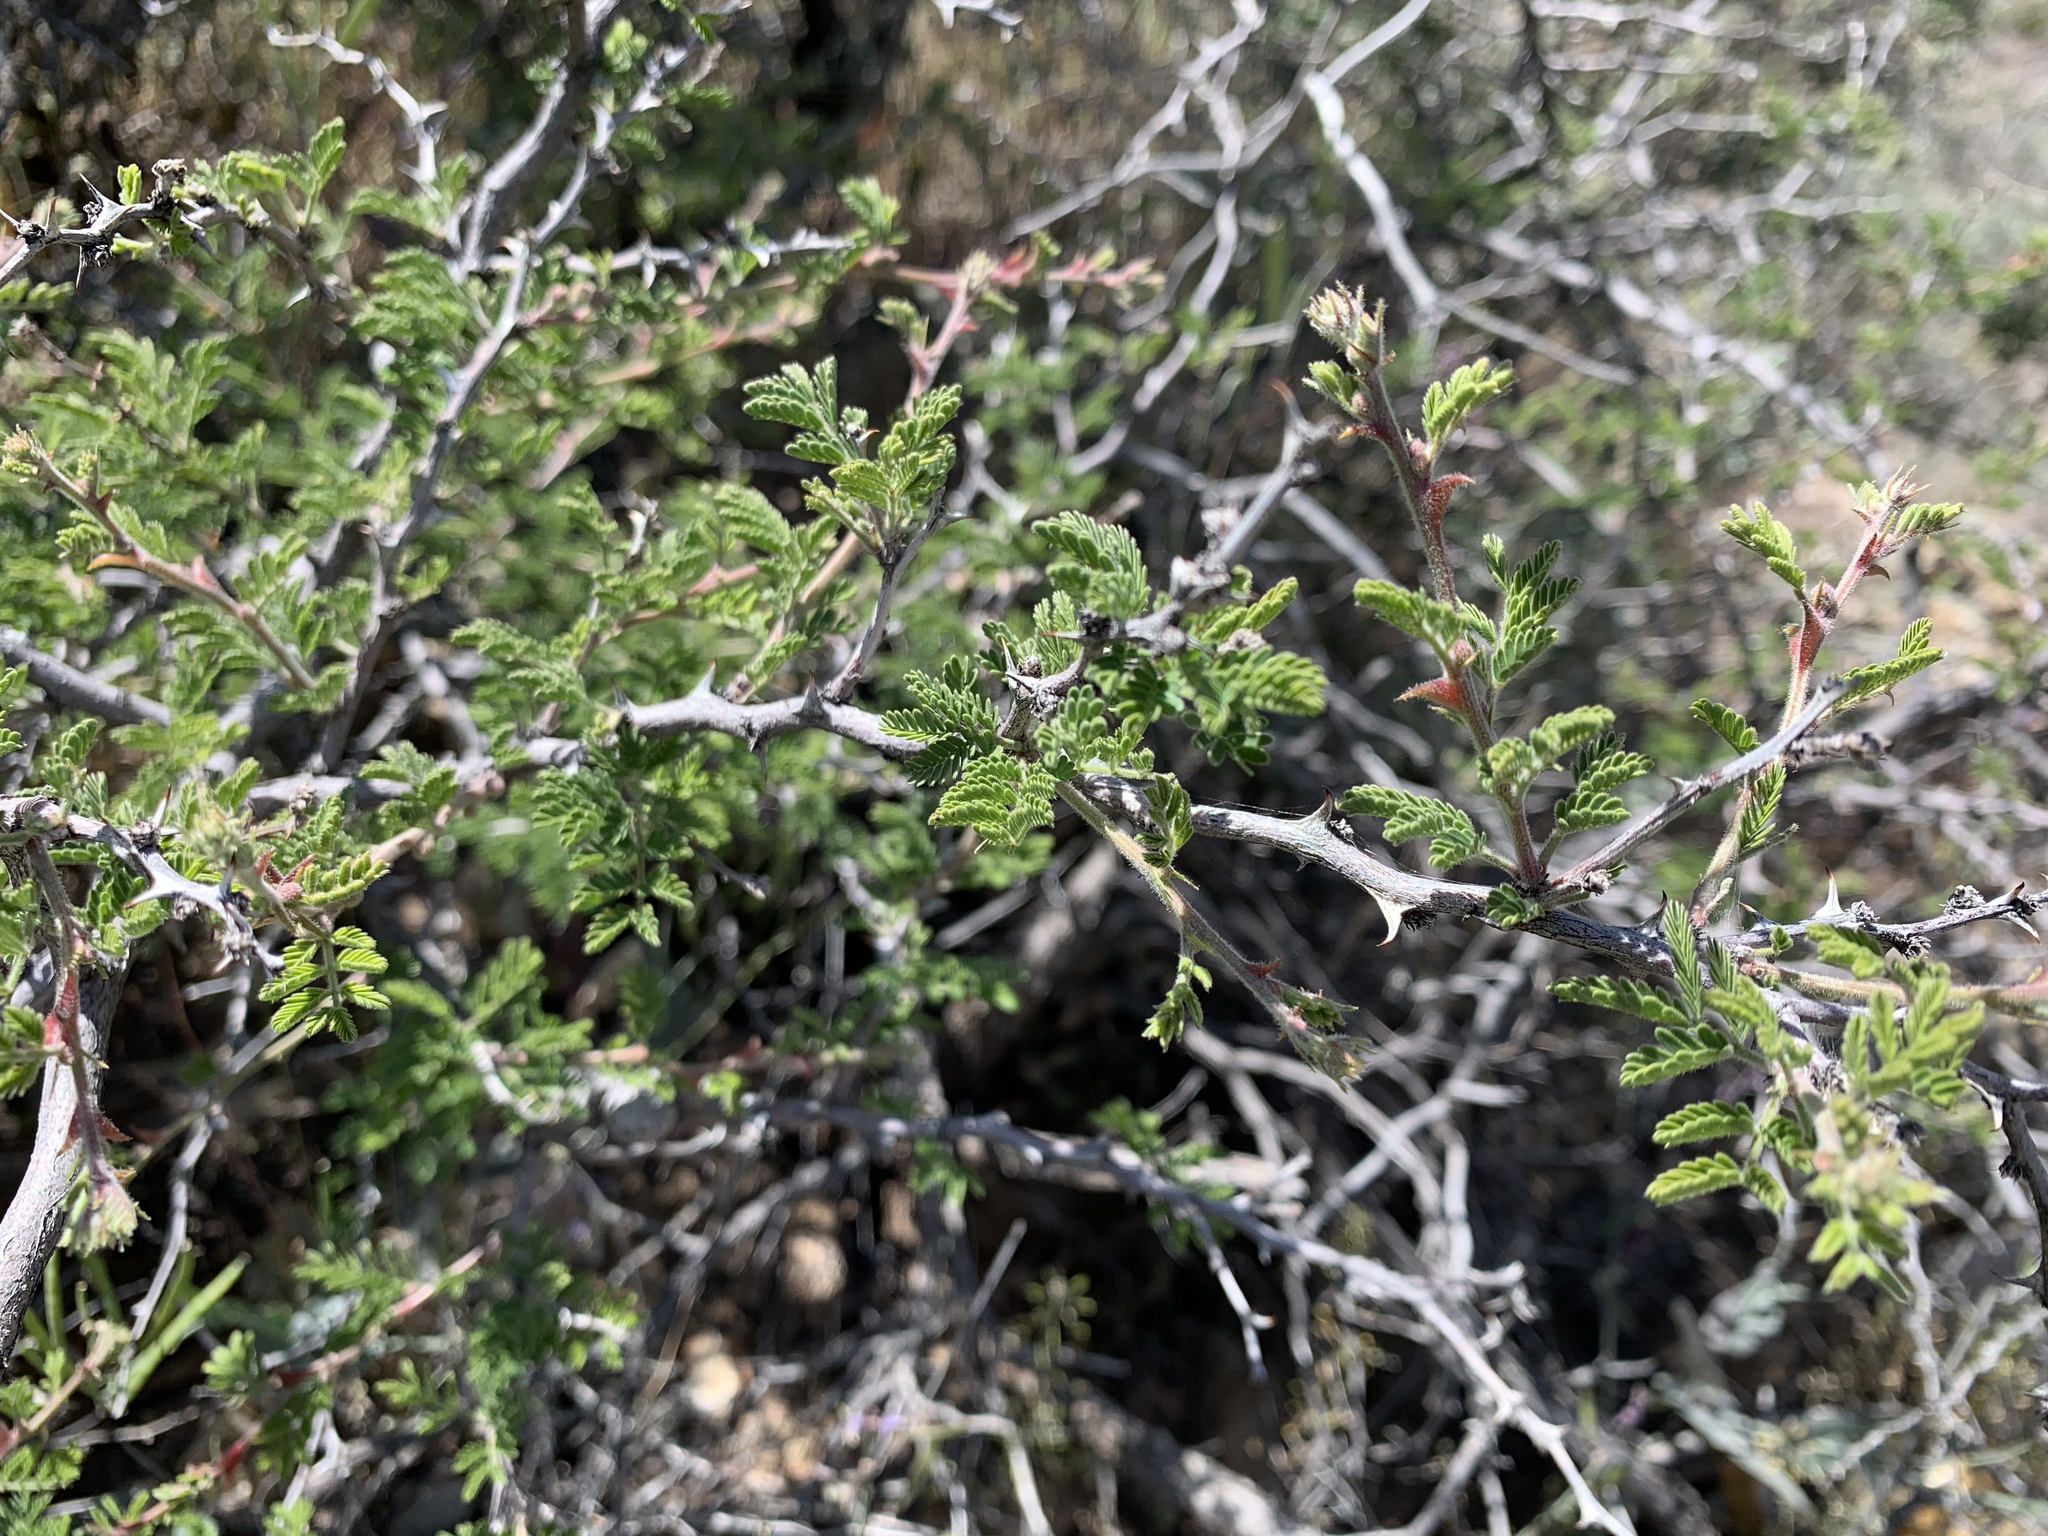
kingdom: Plantae
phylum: Tracheophyta
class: Magnoliopsida
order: Fabales
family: Fabaceae
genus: Mimosa
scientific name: Mimosa aculeaticarpa
